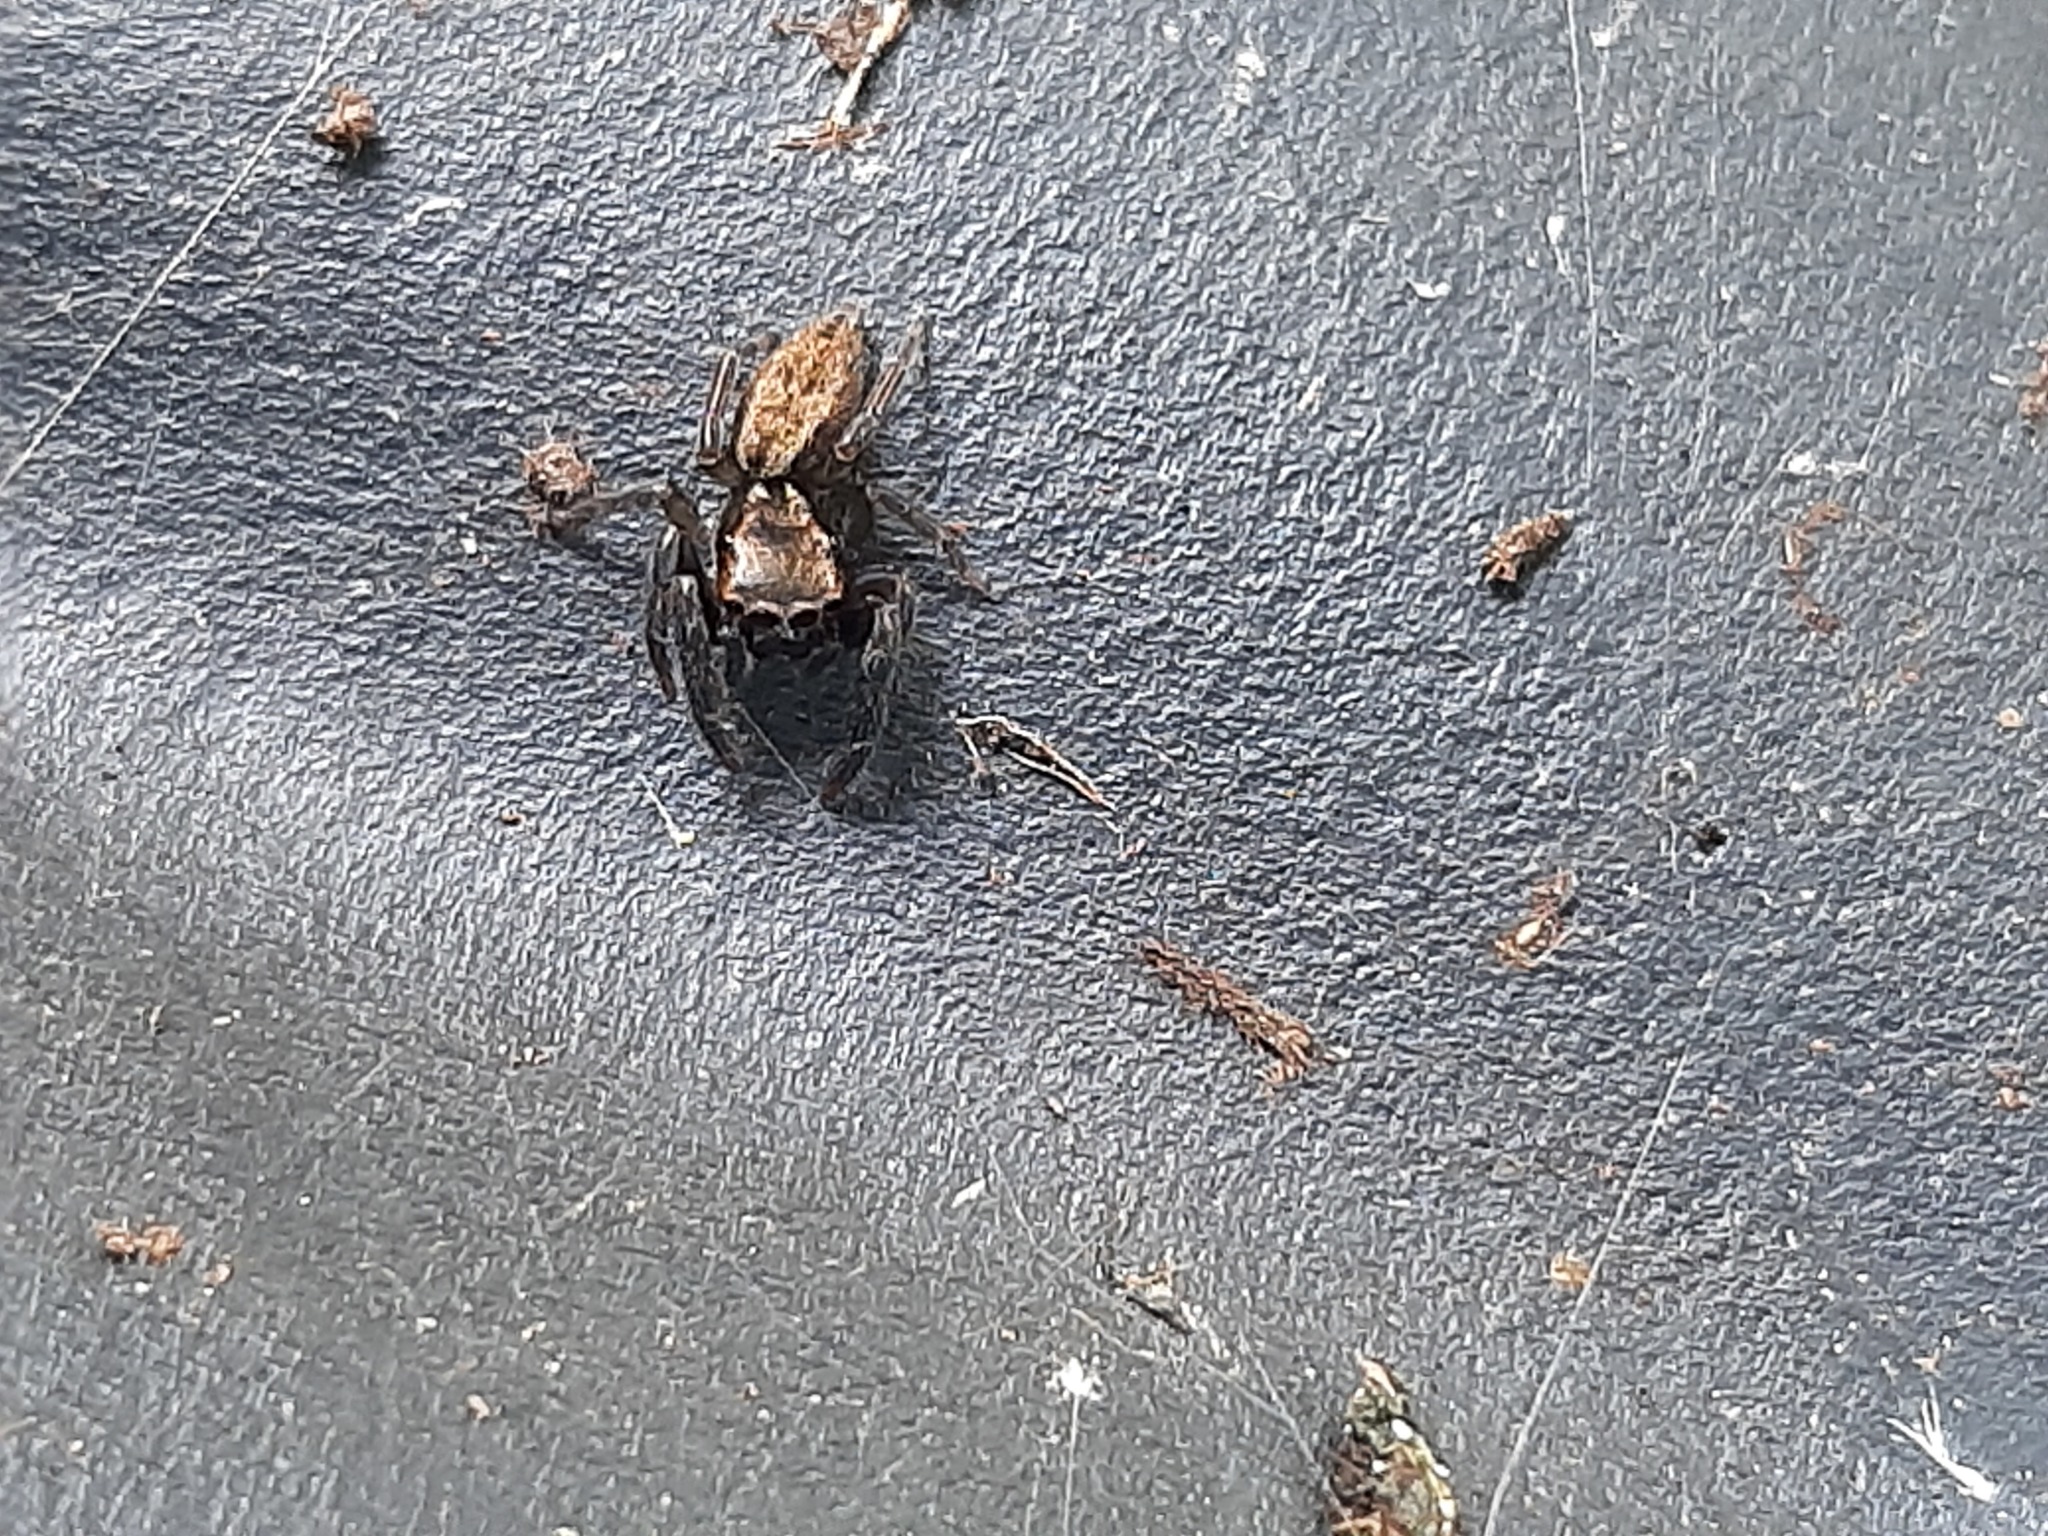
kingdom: Animalia
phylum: Arthropoda
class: Arachnida
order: Araneae
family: Salticidae
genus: Trite
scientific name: Trite auricoma
